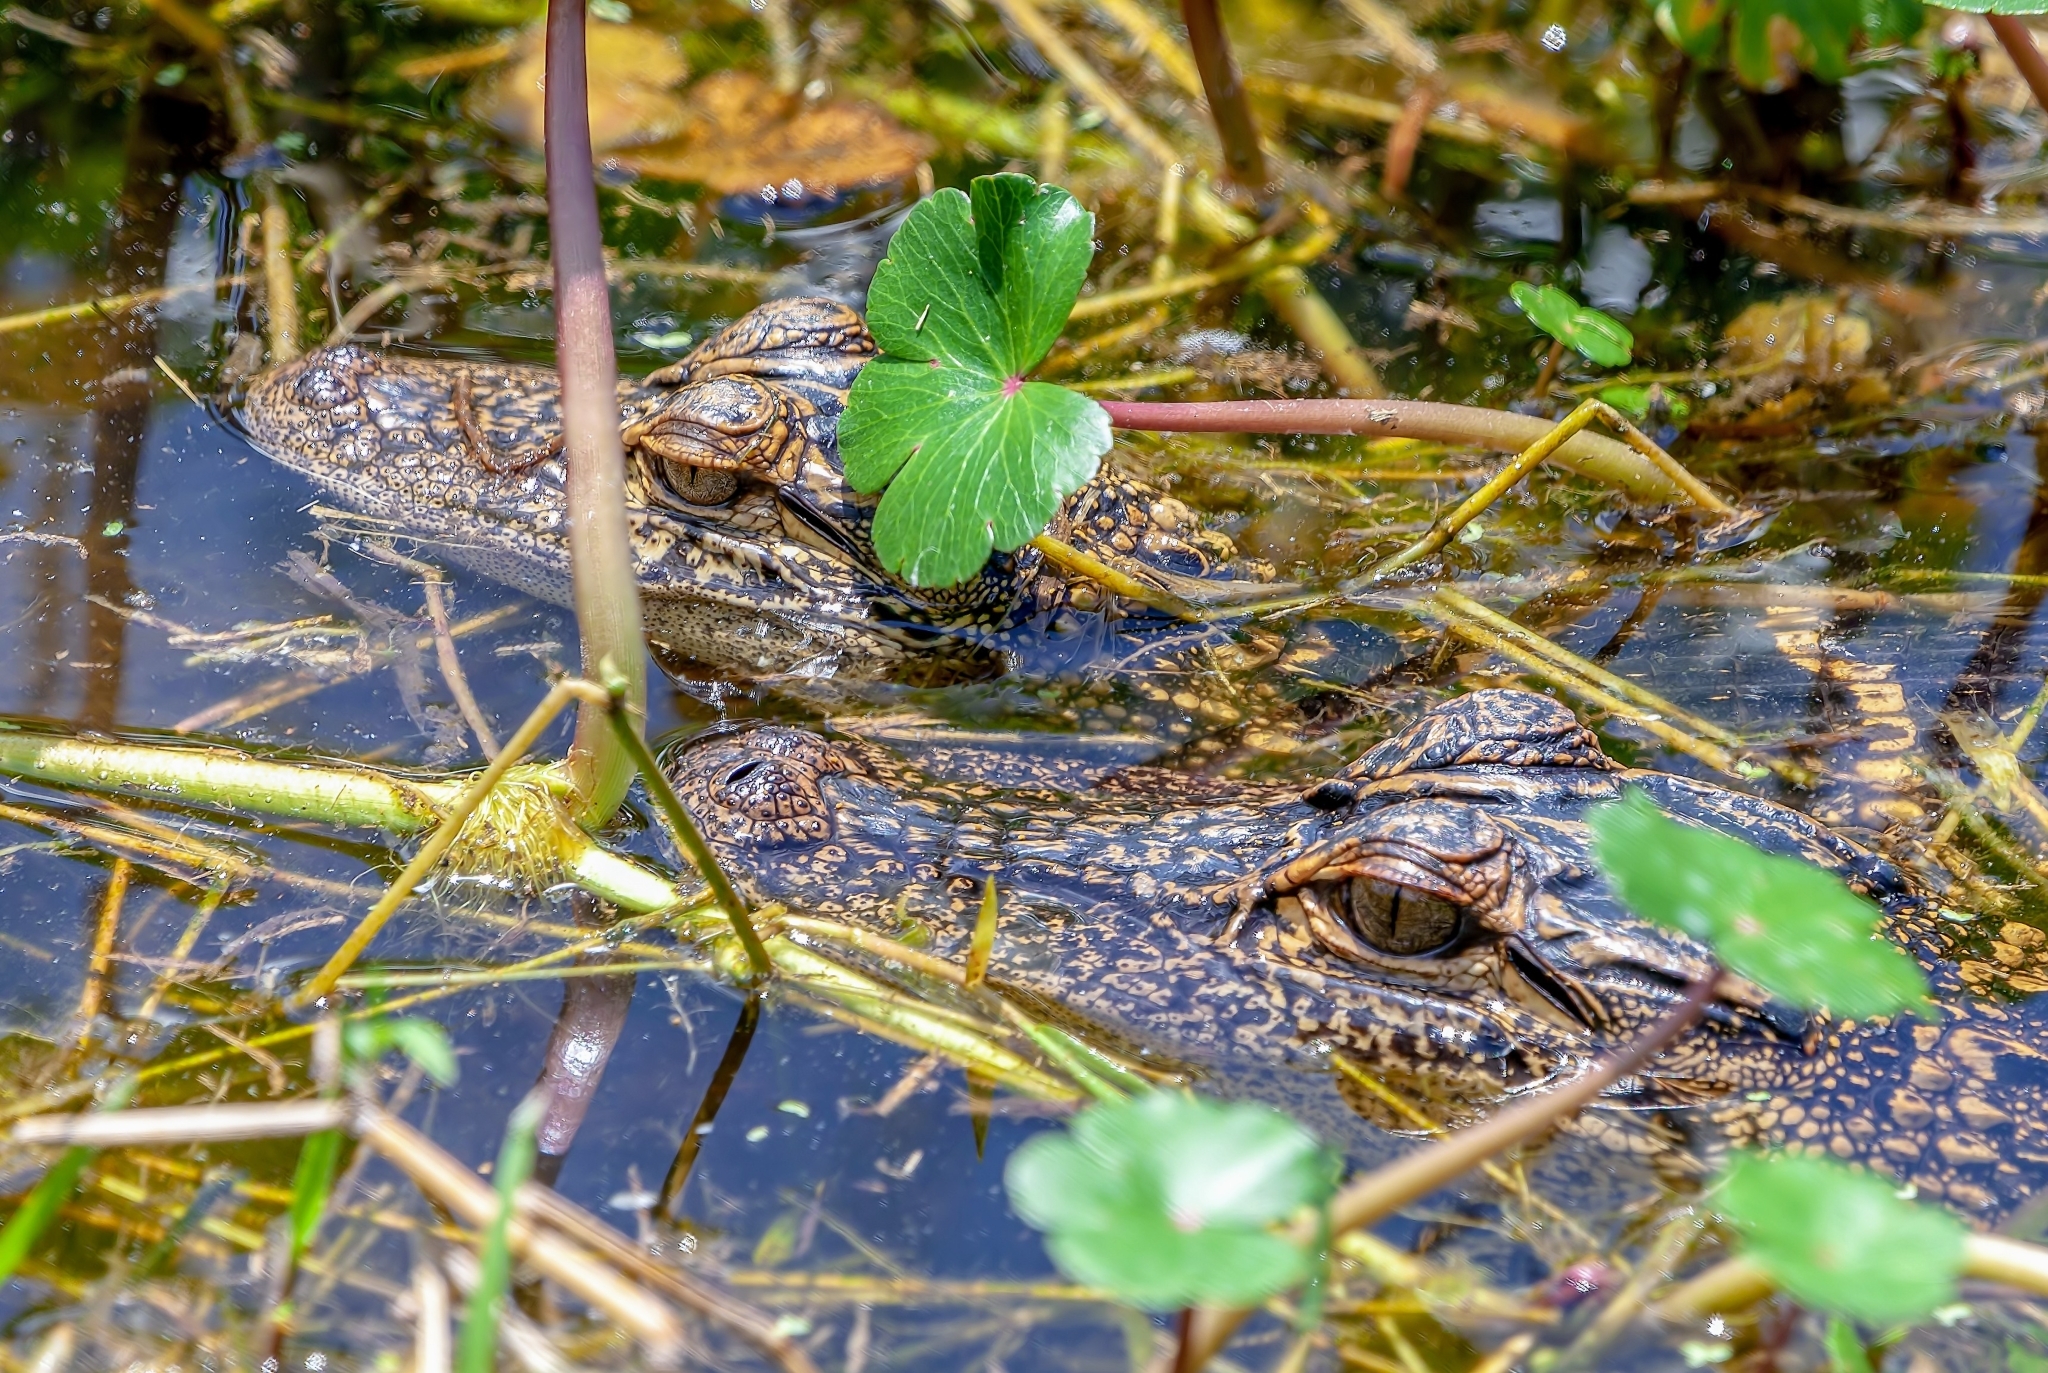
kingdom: Animalia
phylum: Chordata
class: Crocodylia
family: Alligatoridae
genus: Alligator
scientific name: Alligator mississippiensis
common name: American alligator
